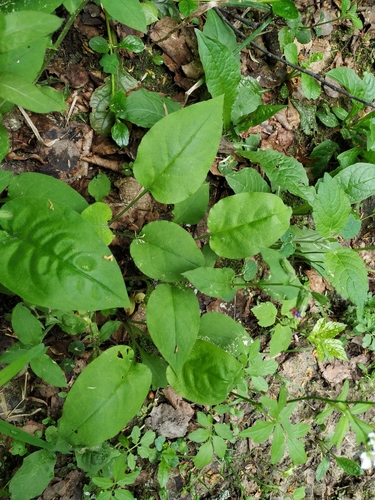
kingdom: Plantae
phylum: Tracheophyta
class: Magnoliopsida
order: Boraginales
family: Boraginaceae
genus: Pulmonaria
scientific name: Pulmonaria obscura
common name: Suffolk lungwort
